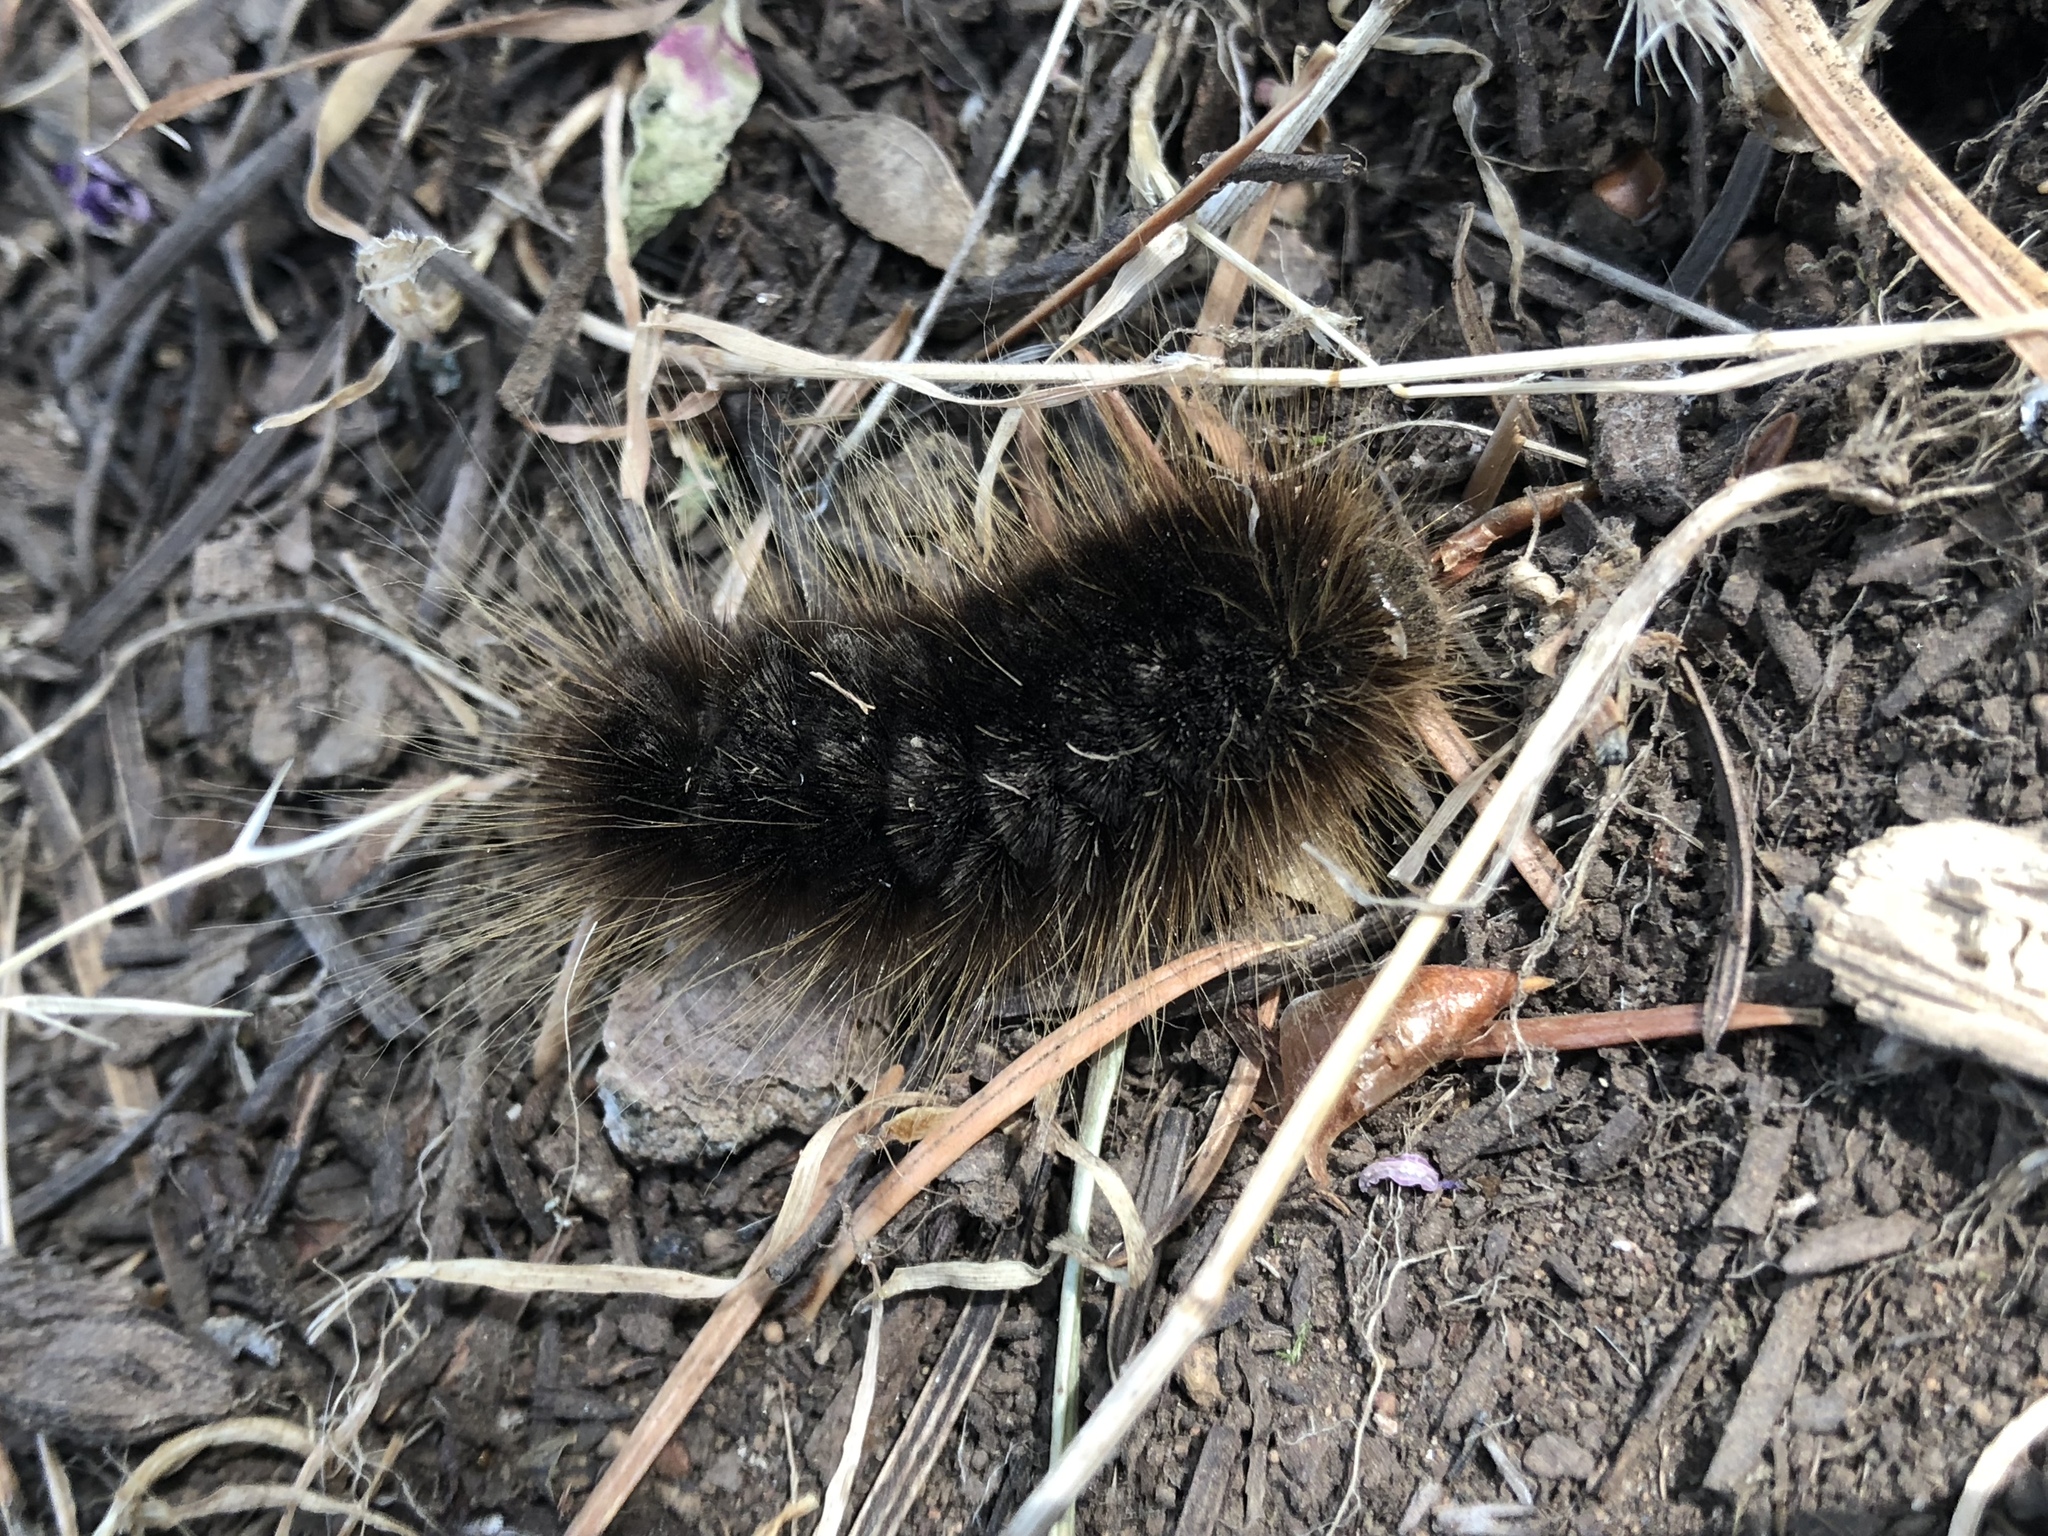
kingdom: Animalia
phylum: Arthropoda
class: Insecta
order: Lepidoptera
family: Erebidae
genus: Hemihyalea
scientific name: Hemihyalea edwardsii
